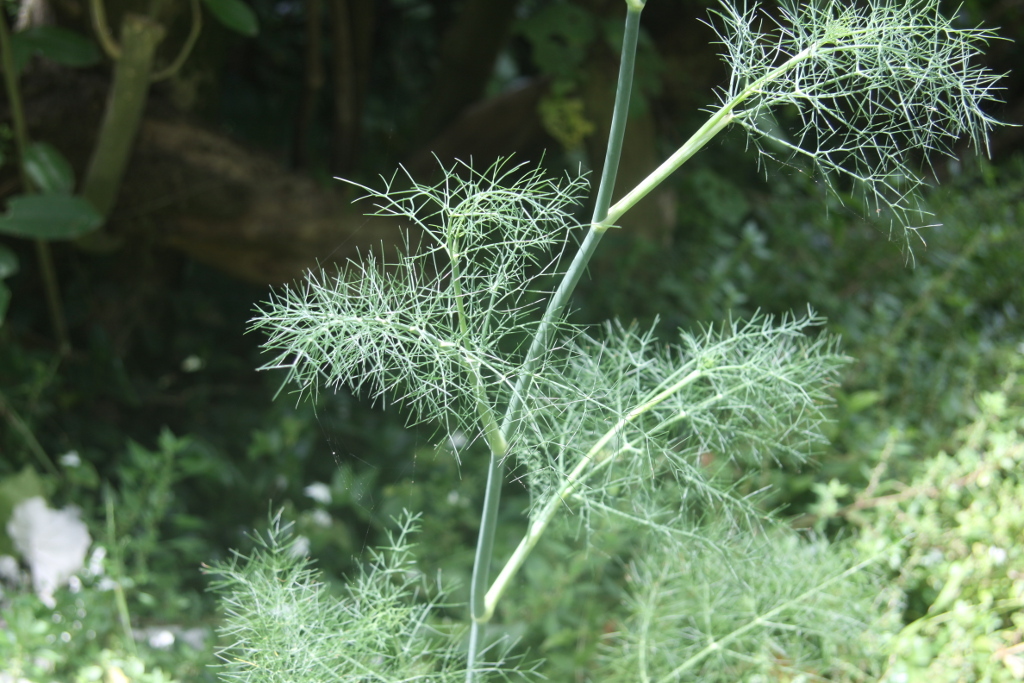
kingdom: Plantae
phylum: Tracheophyta
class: Magnoliopsida
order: Apiales
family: Apiaceae
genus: Foeniculum
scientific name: Foeniculum vulgare
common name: Fennel
